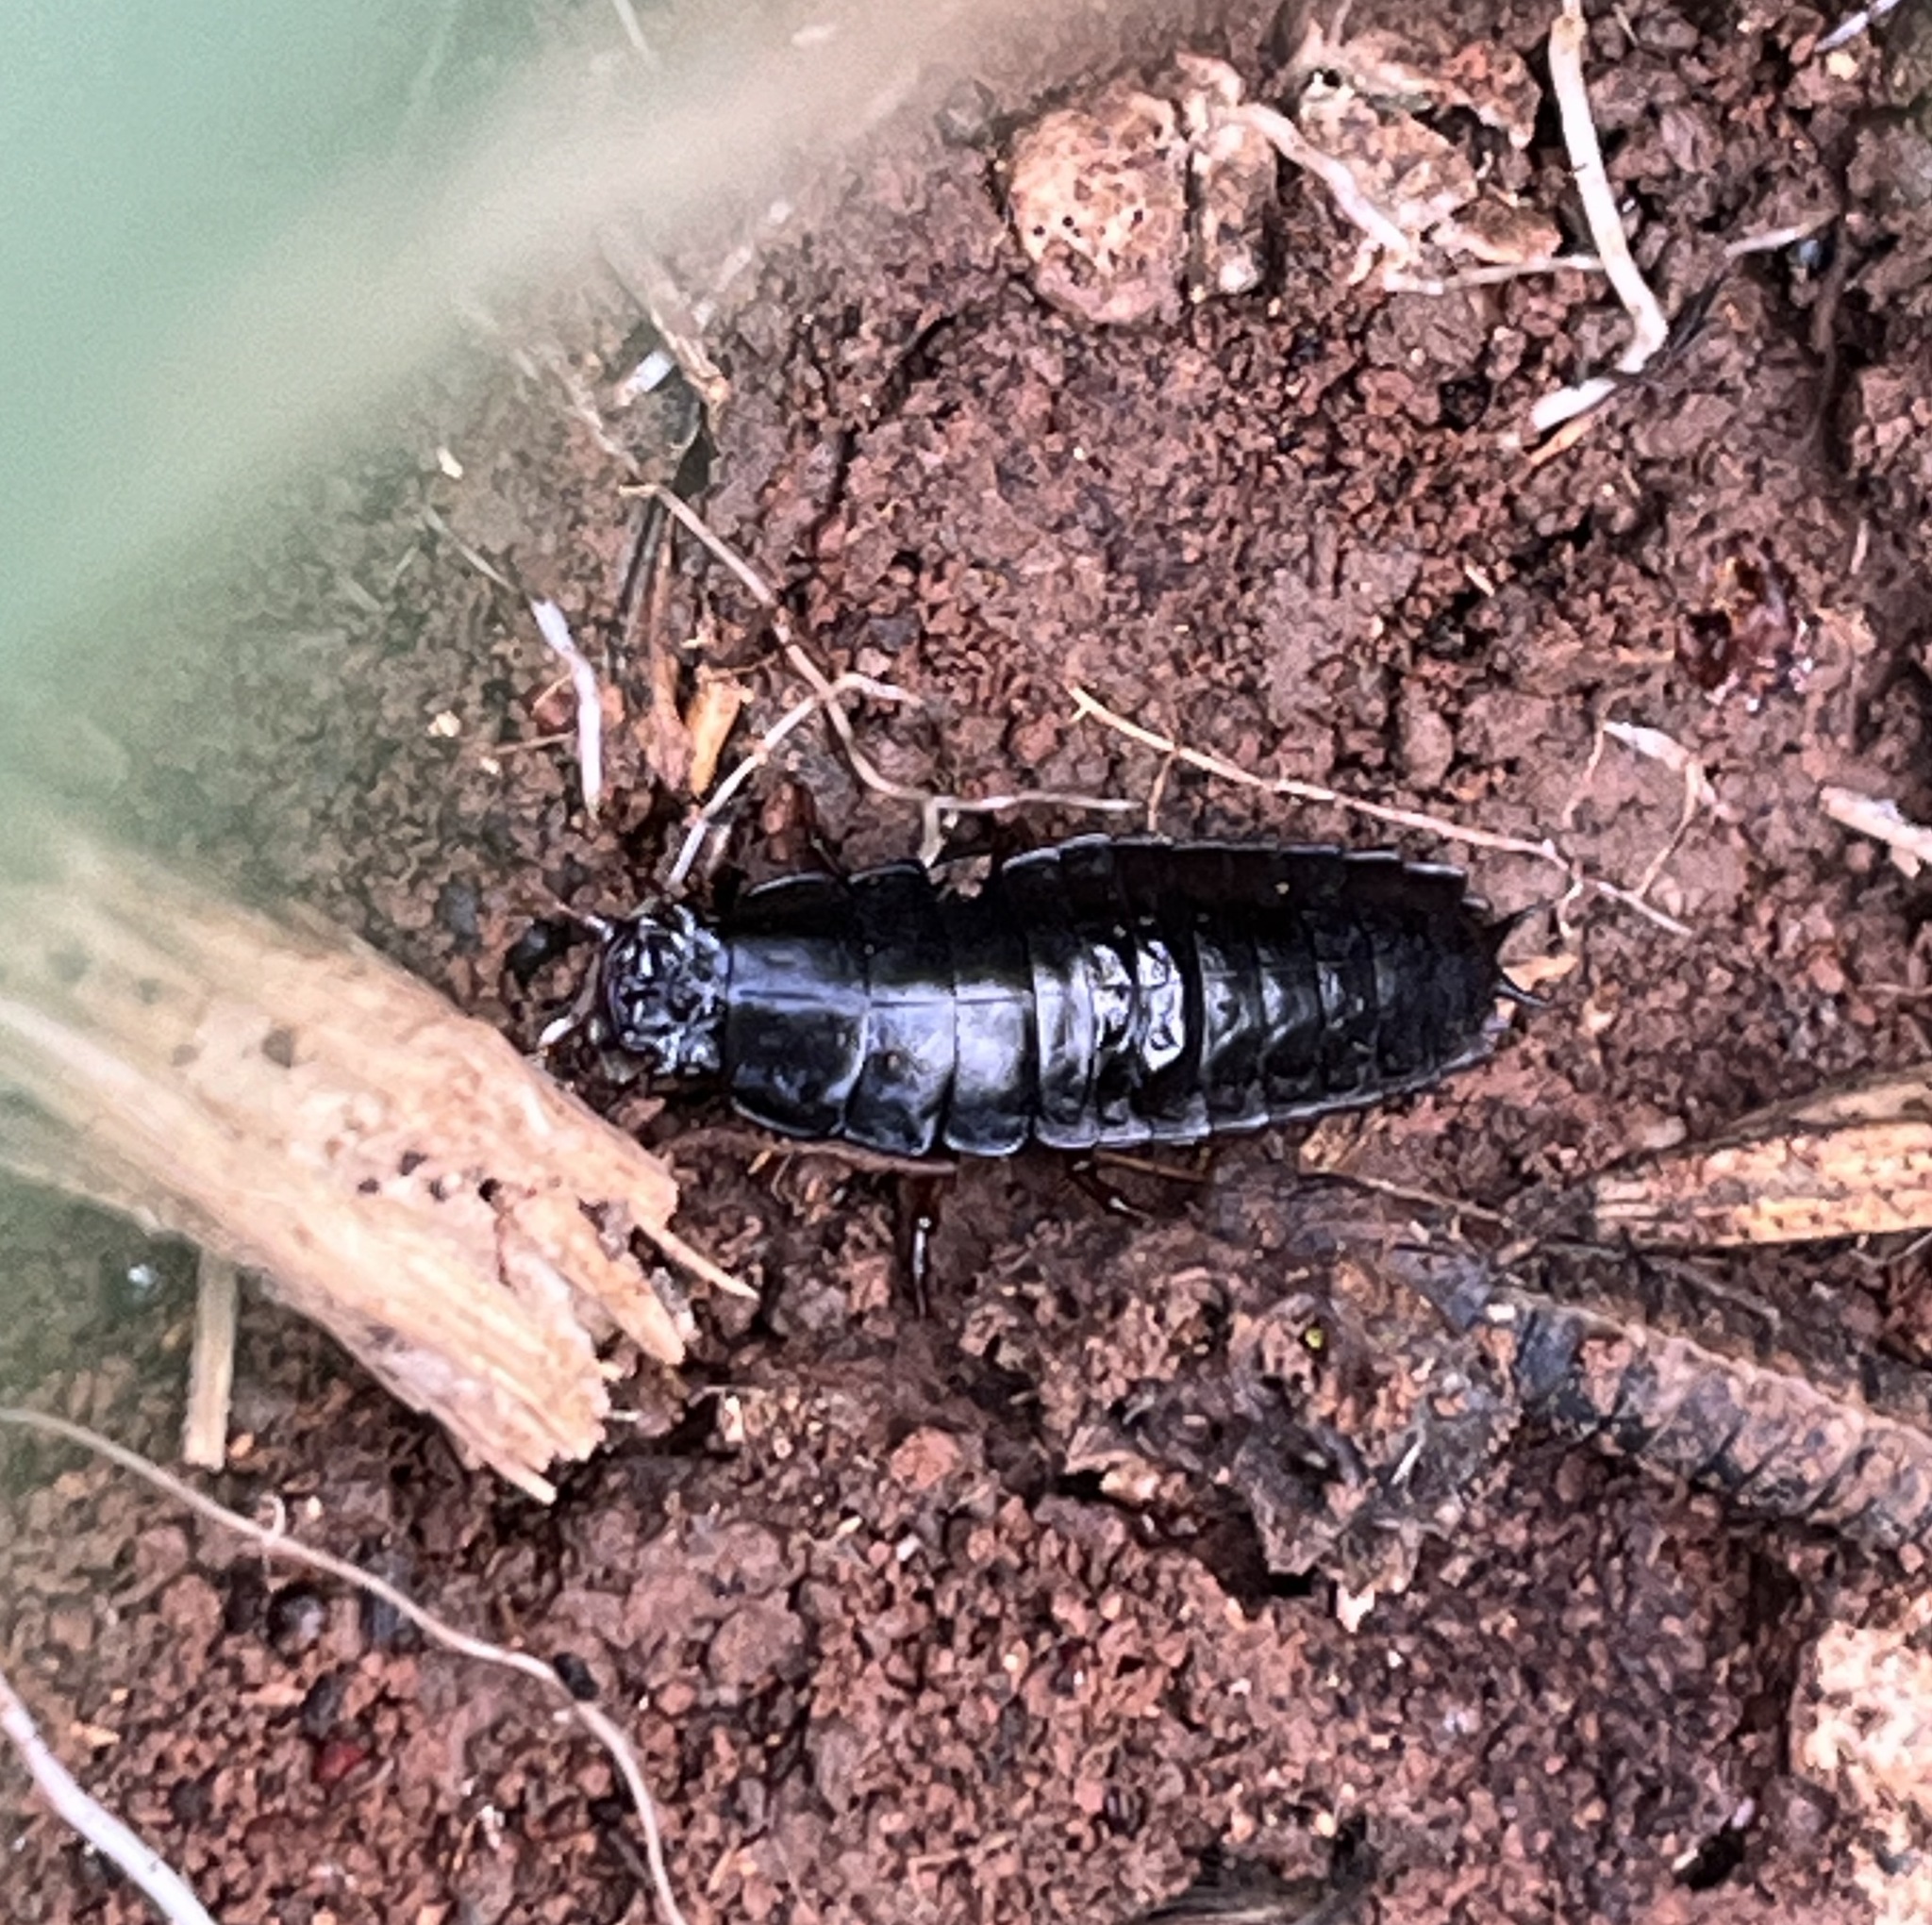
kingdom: Animalia
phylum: Arthropoda
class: Insecta
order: Coleoptera
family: Carabidae
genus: Carabus
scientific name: Carabus
